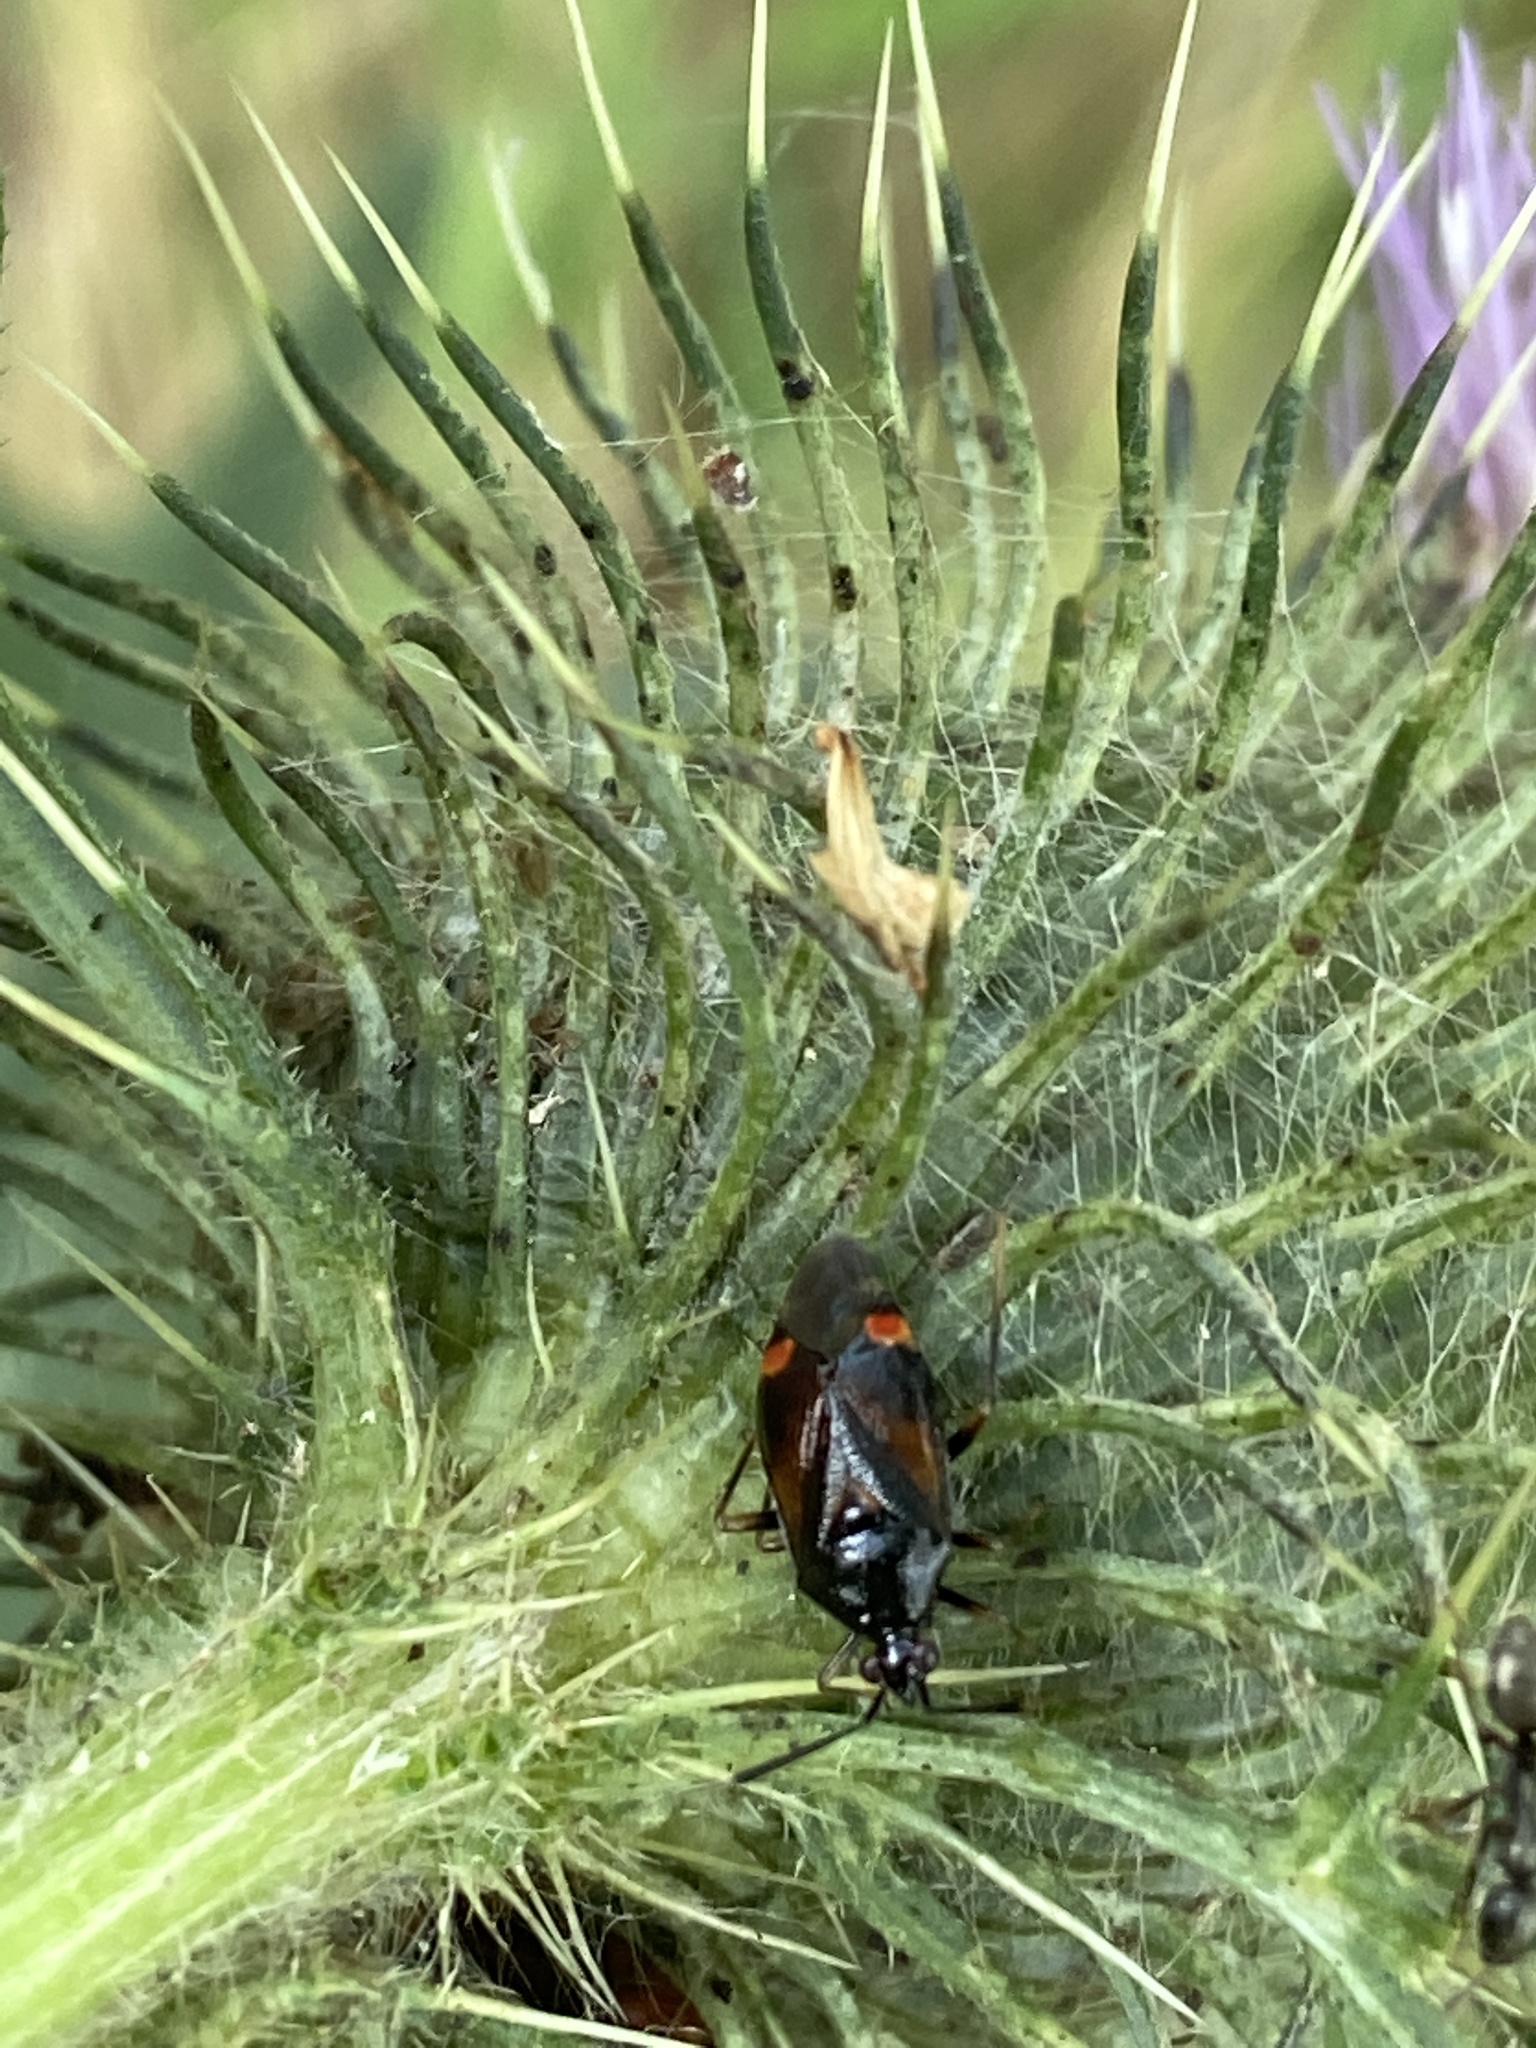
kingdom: Animalia
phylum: Arthropoda
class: Insecta
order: Hemiptera
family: Miridae
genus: Deraeocoris
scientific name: Deraeocoris ruber
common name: Plant bug
